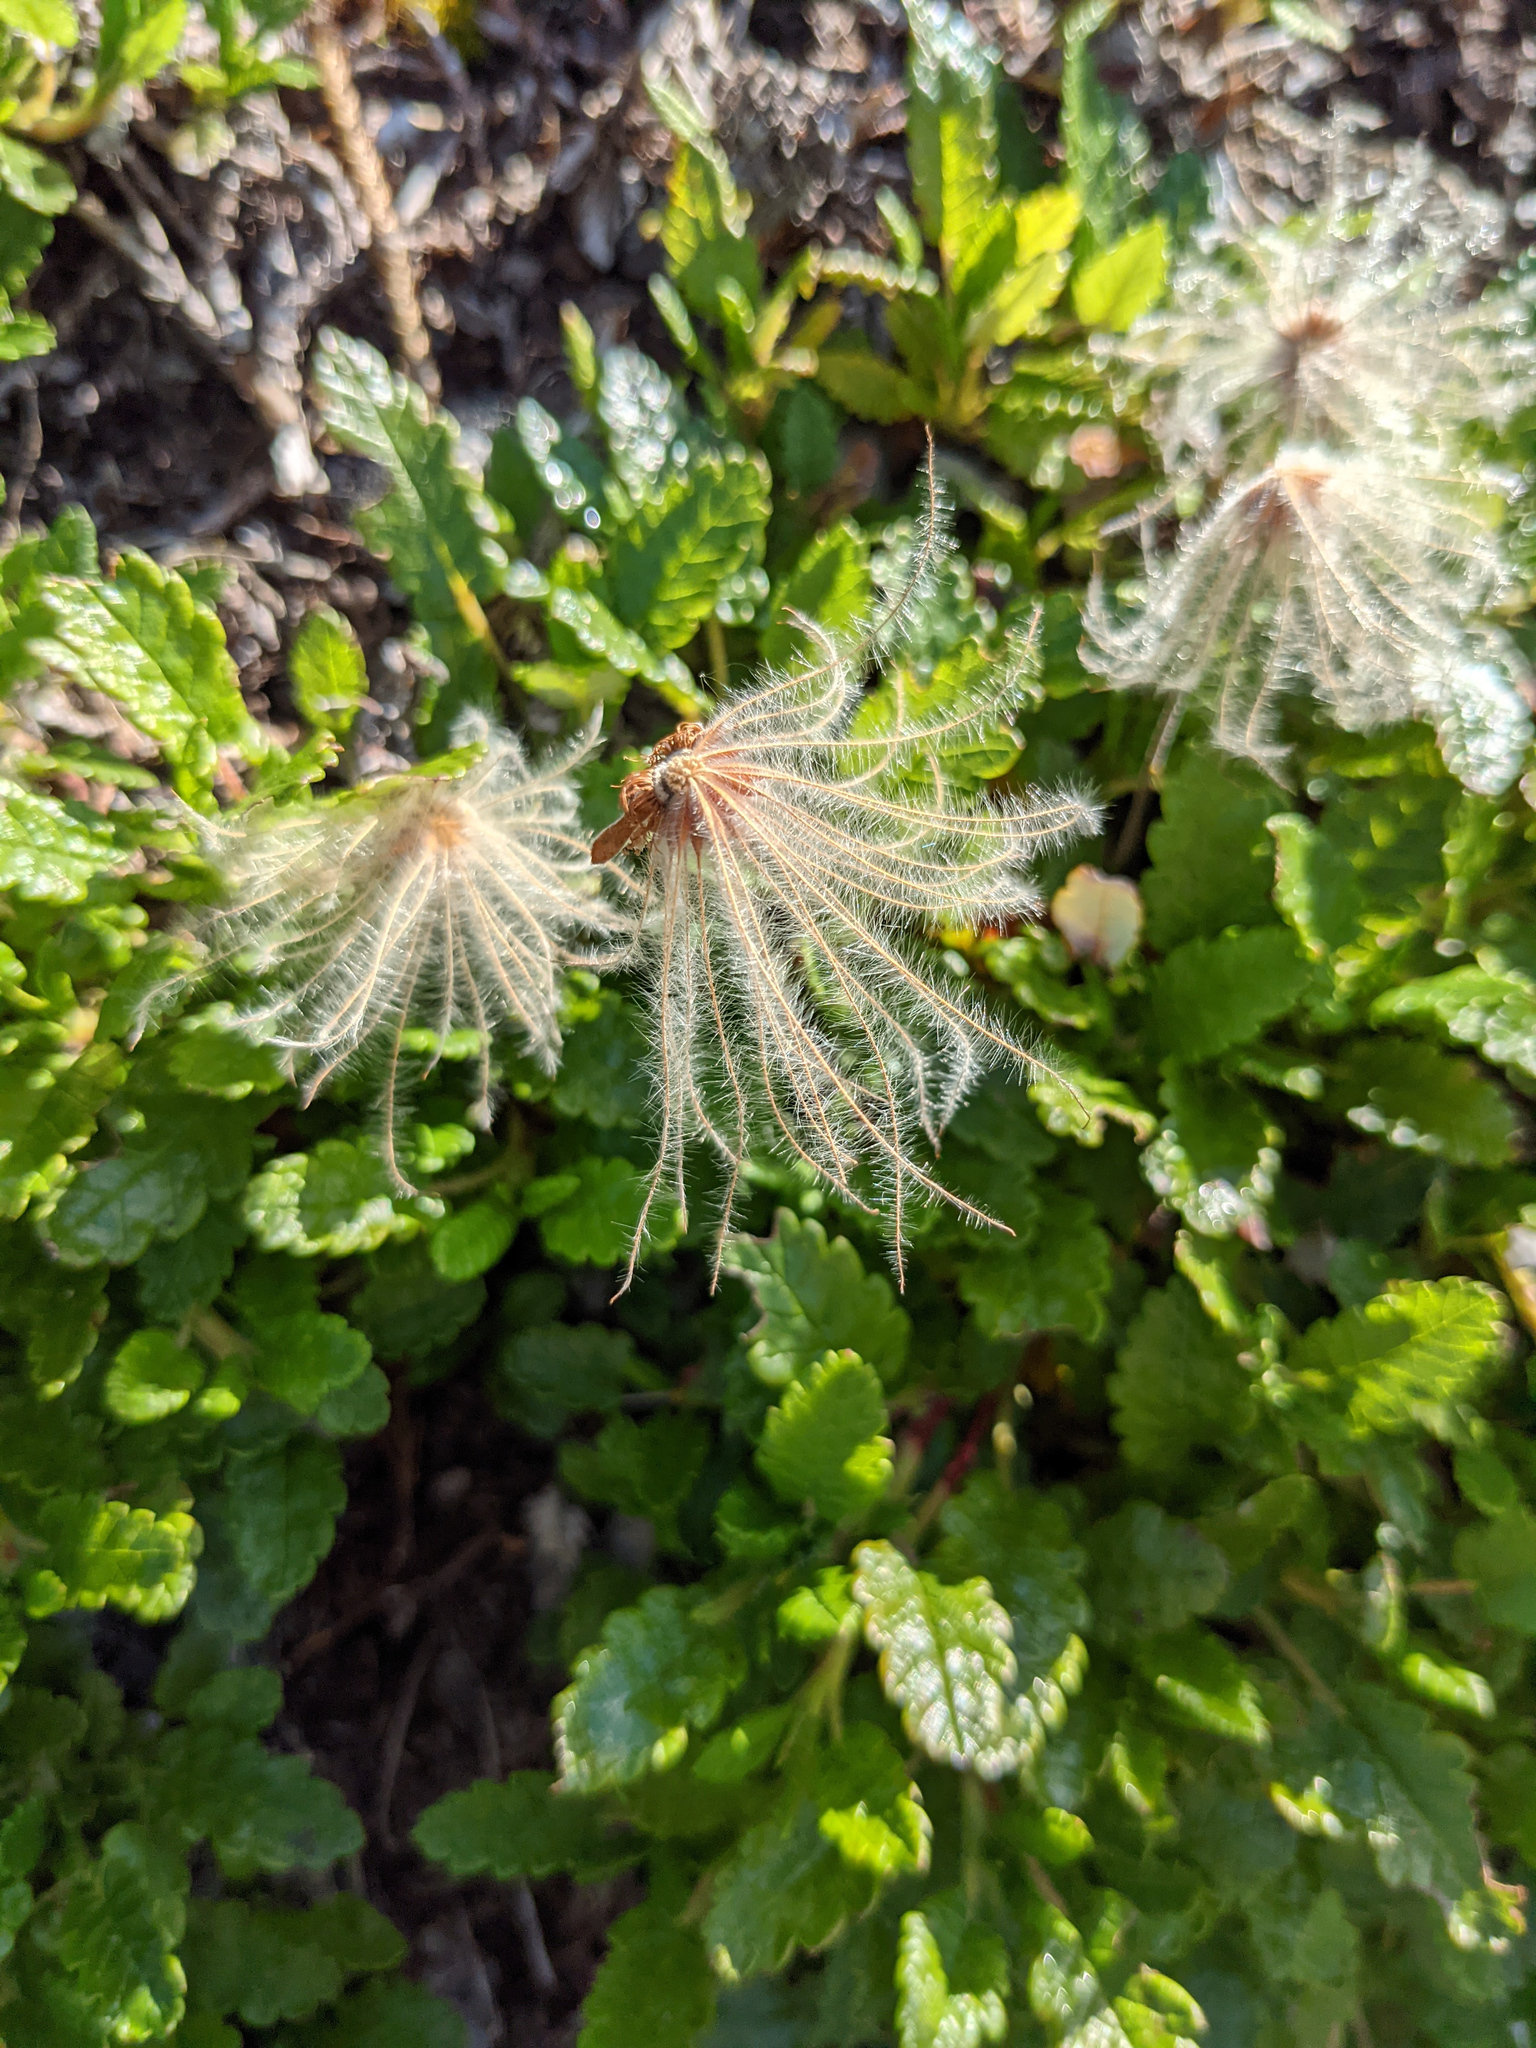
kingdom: Plantae
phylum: Tracheophyta
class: Magnoliopsida
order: Rosales
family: Rosaceae
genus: Dryas
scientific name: Dryas octopetala
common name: Eight-petal mountain-avens
